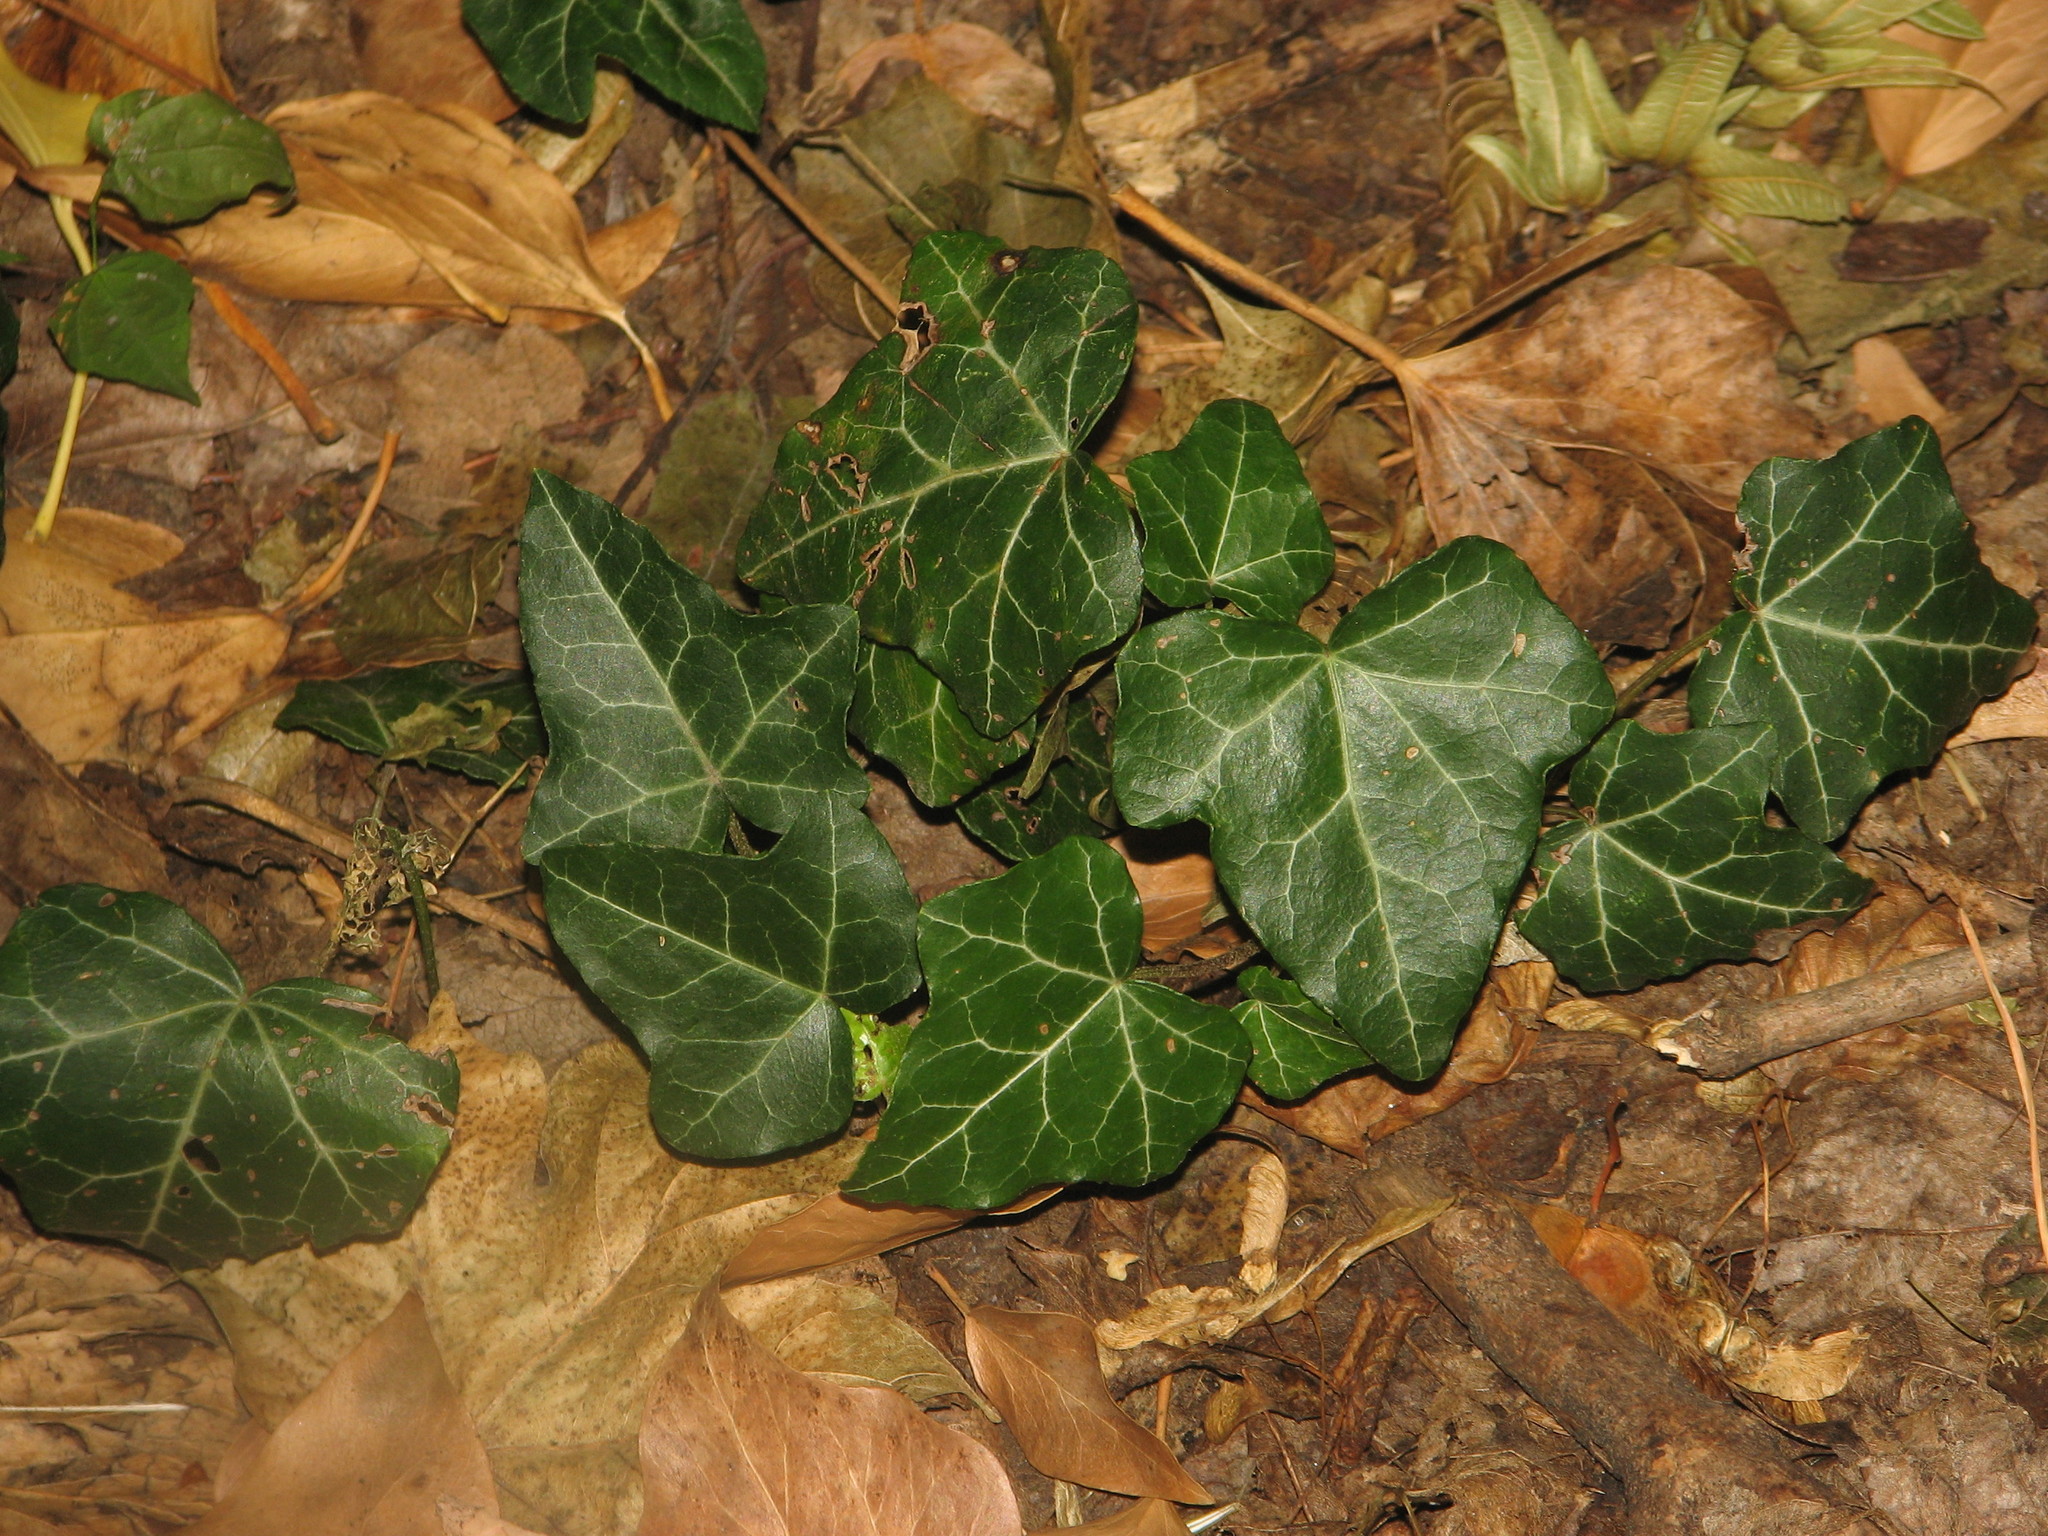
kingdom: Plantae
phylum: Tracheophyta
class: Magnoliopsida
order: Apiales
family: Araliaceae
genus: Hedera
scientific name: Hedera helix
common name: Ivy
